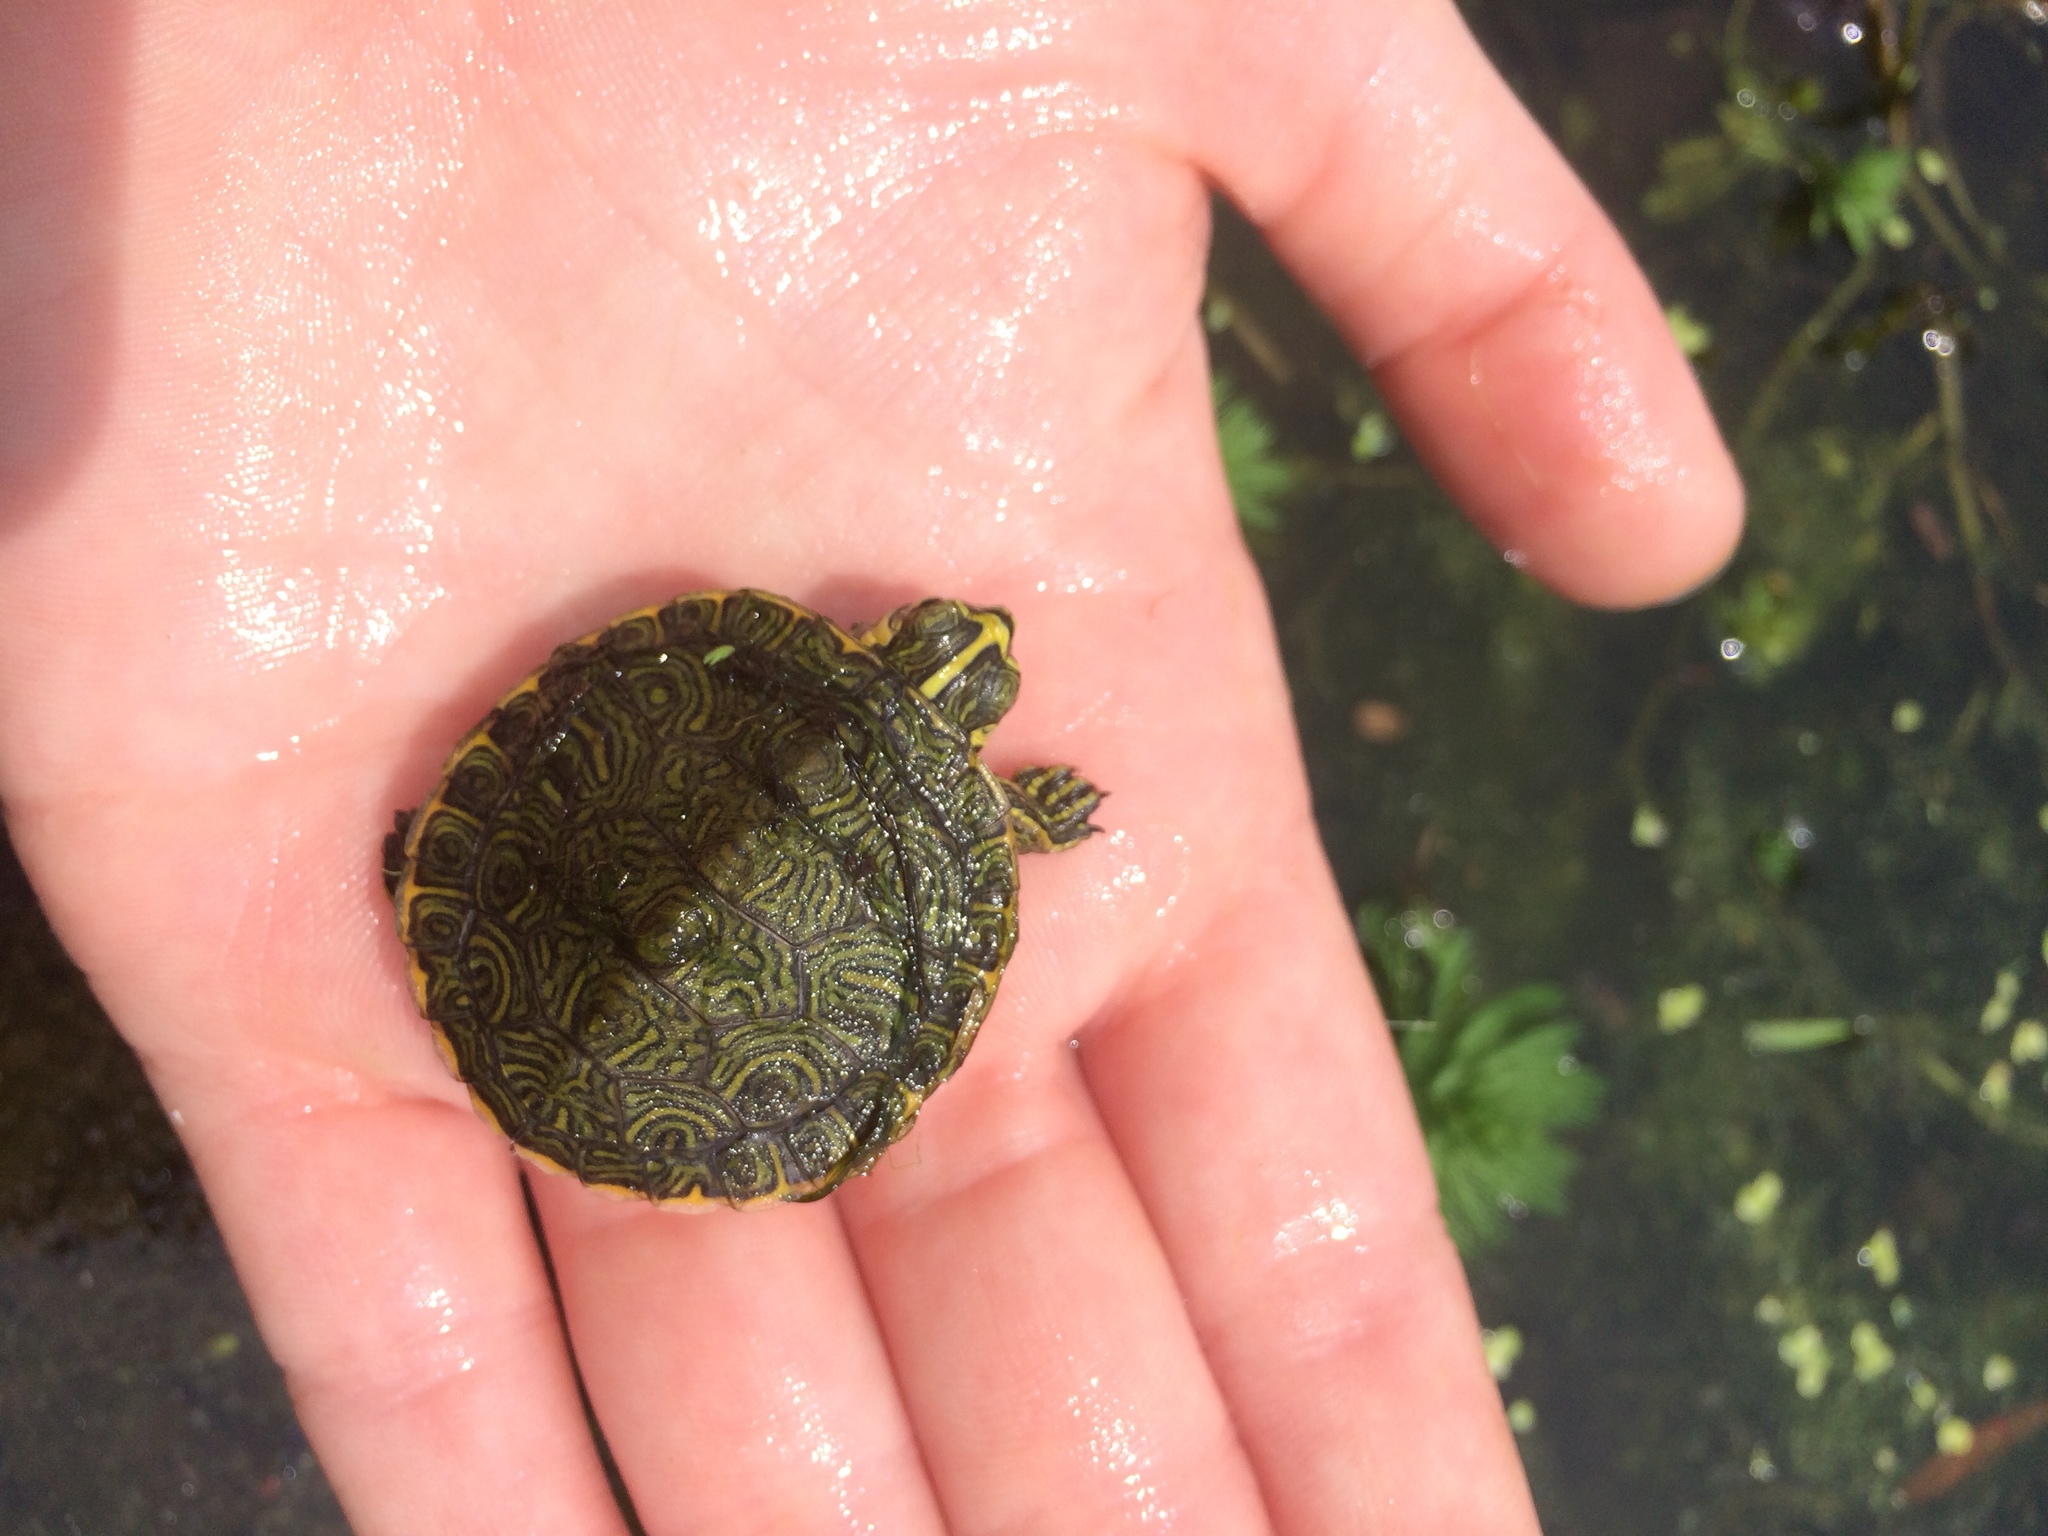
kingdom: Animalia
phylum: Chordata
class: Testudines
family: Emydidae
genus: Trachemys
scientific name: Trachemys scripta
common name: Slider
